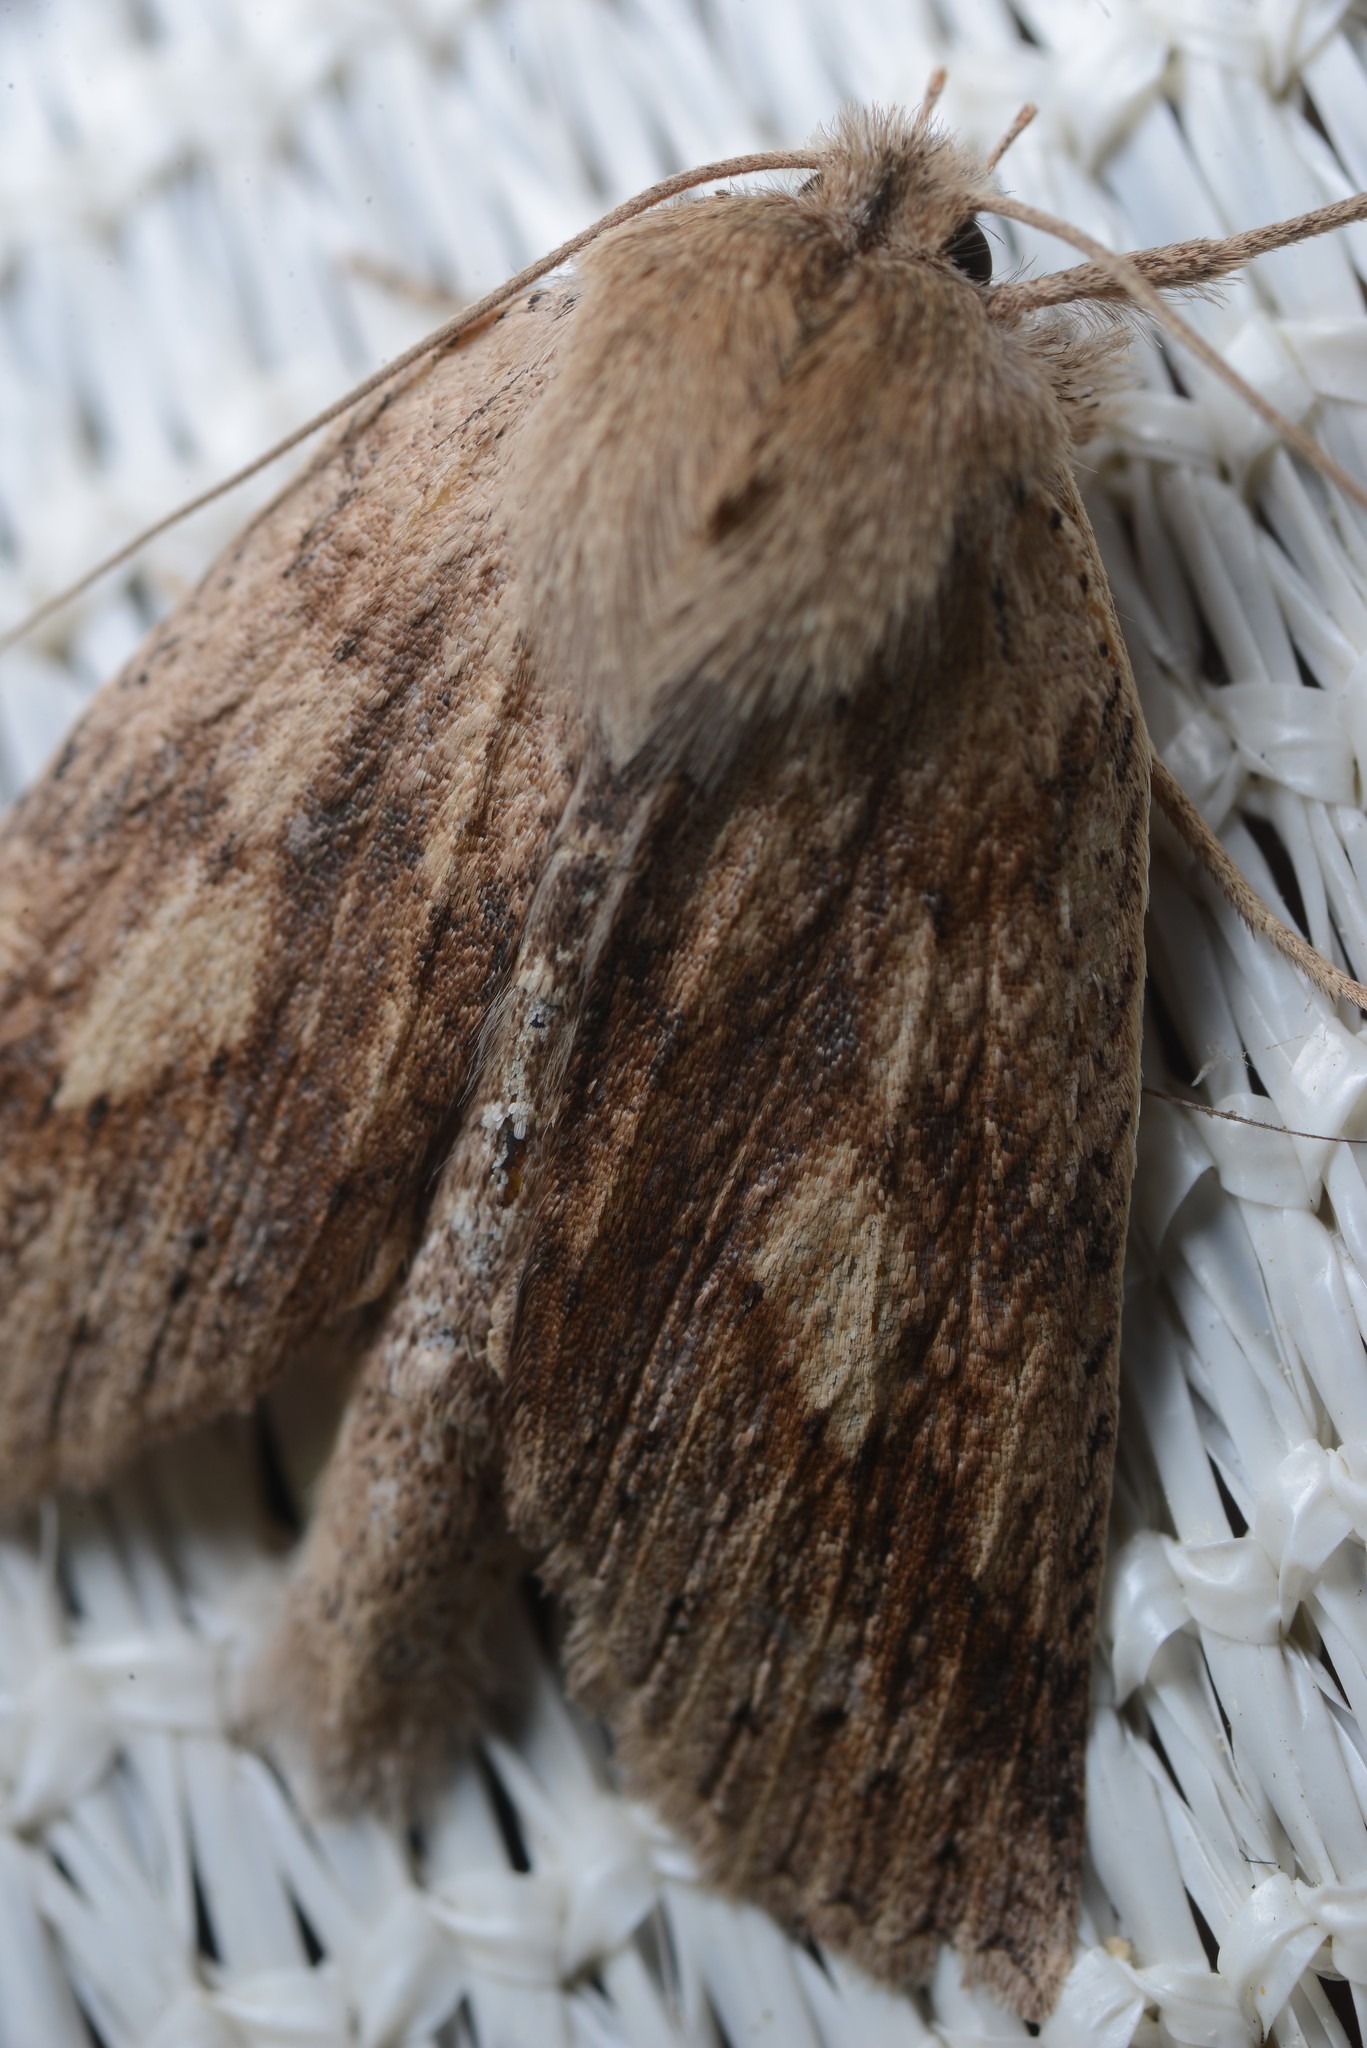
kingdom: Animalia
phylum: Arthropoda
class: Insecta
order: Lepidoptera
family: Geometridae
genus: Declana
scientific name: Declana leptomera
